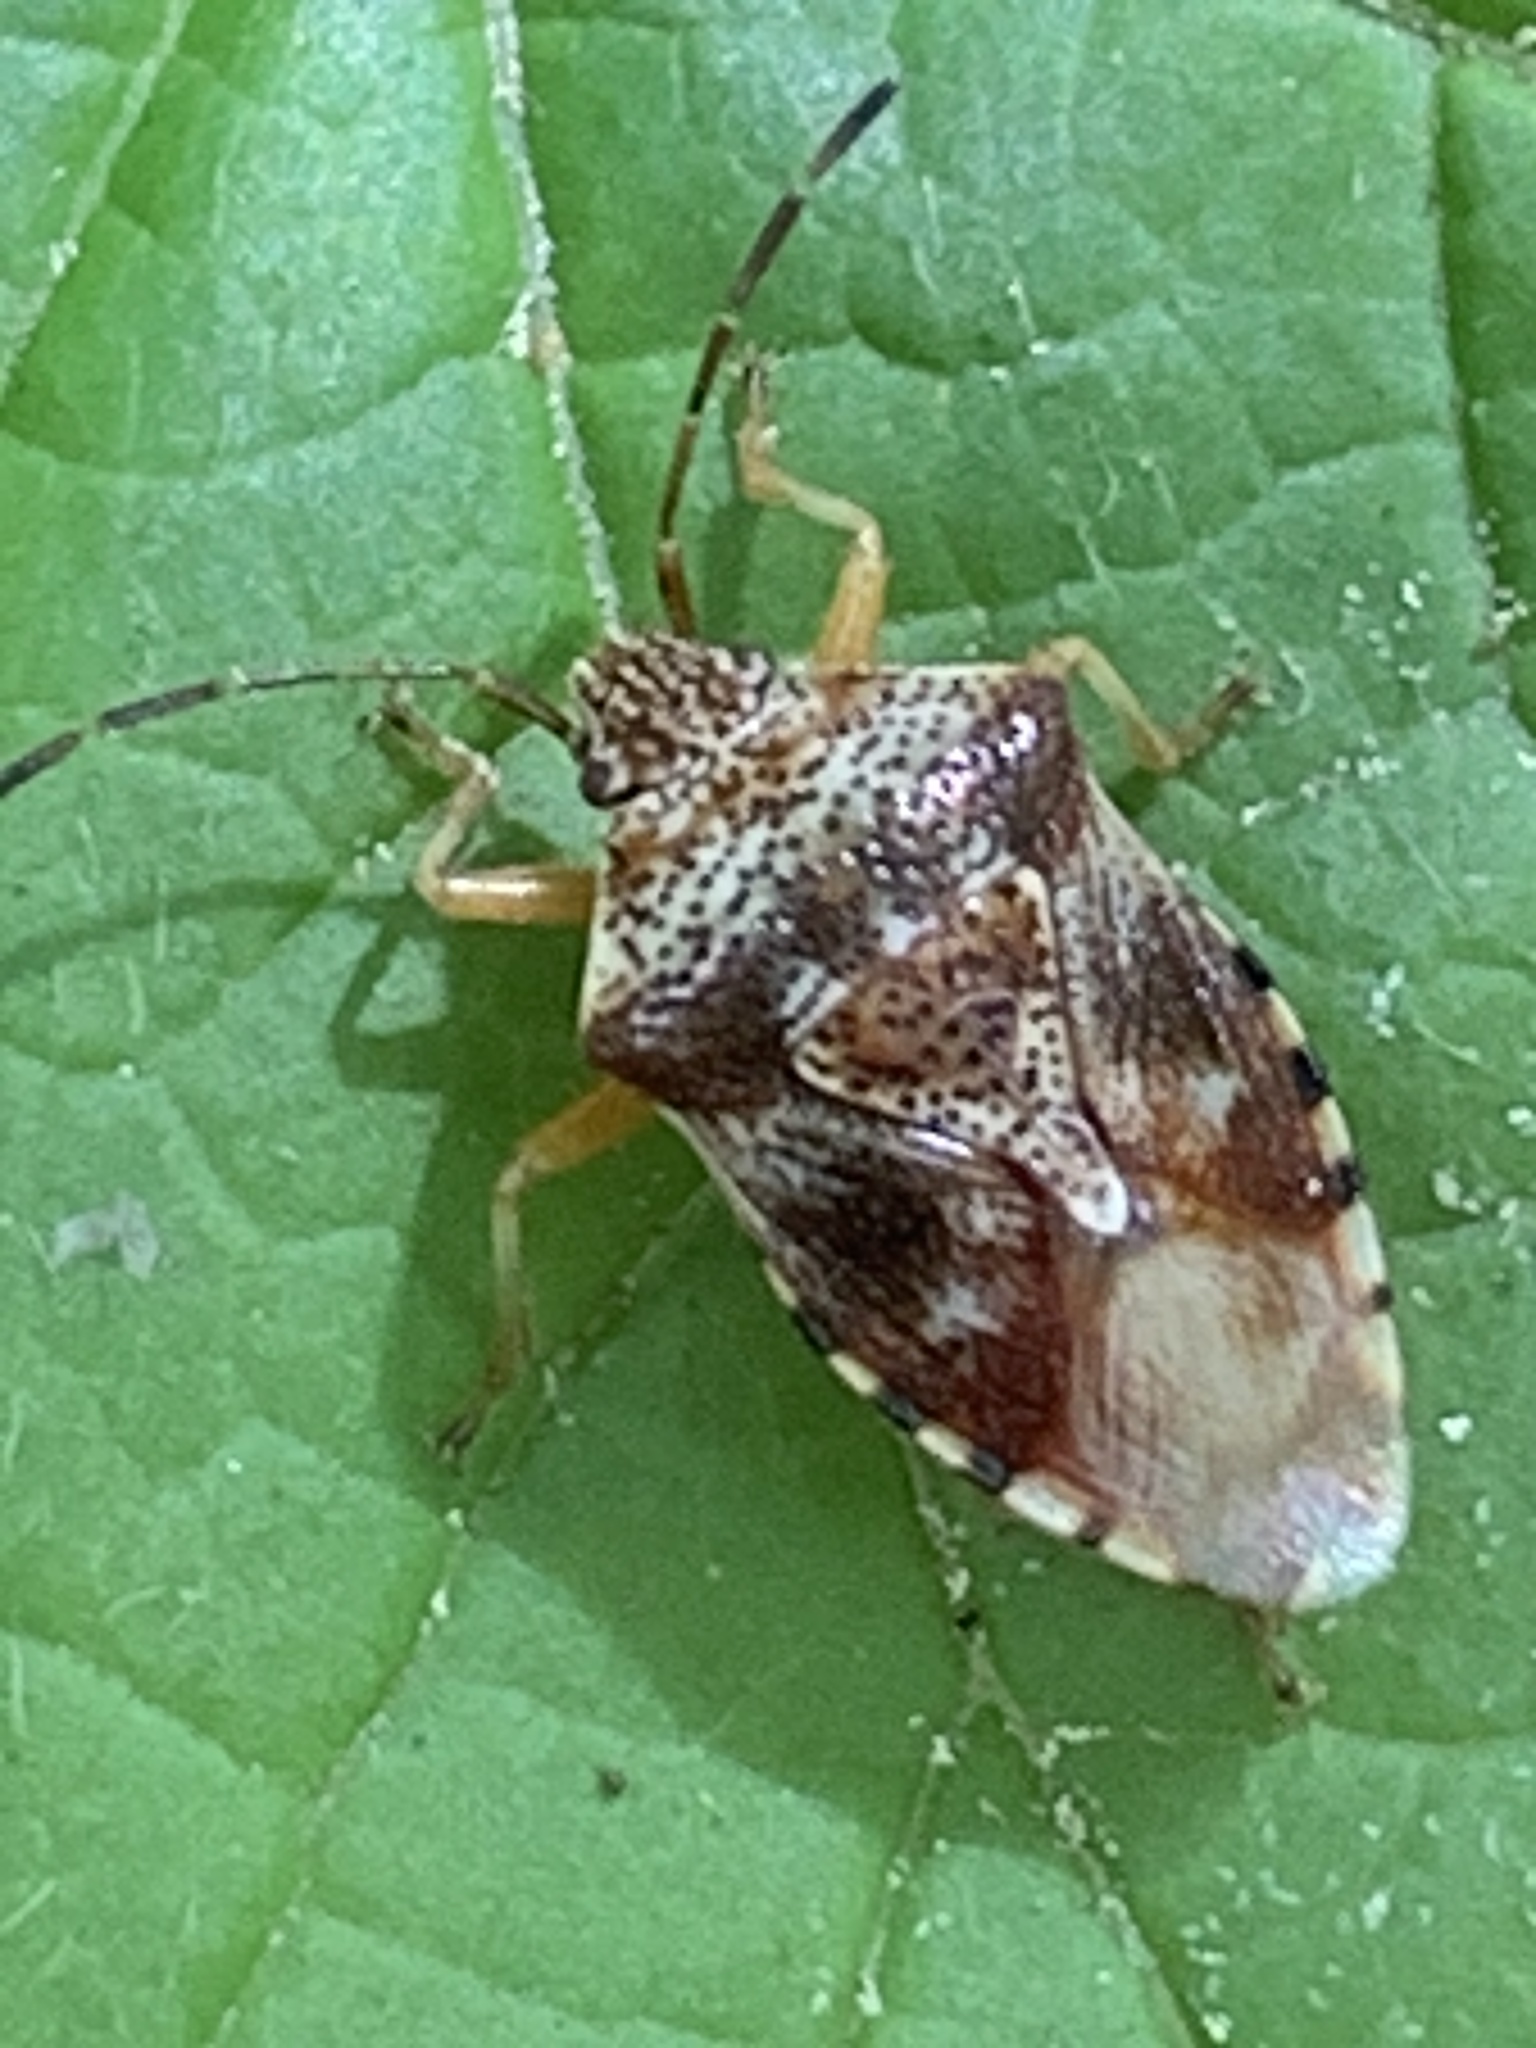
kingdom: Animalia
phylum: Arthropoda
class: Insecta
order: Hemiptera
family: Acanthosomatidae
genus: Elasmucha
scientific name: Elasmucha lateralis
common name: Shield bug
